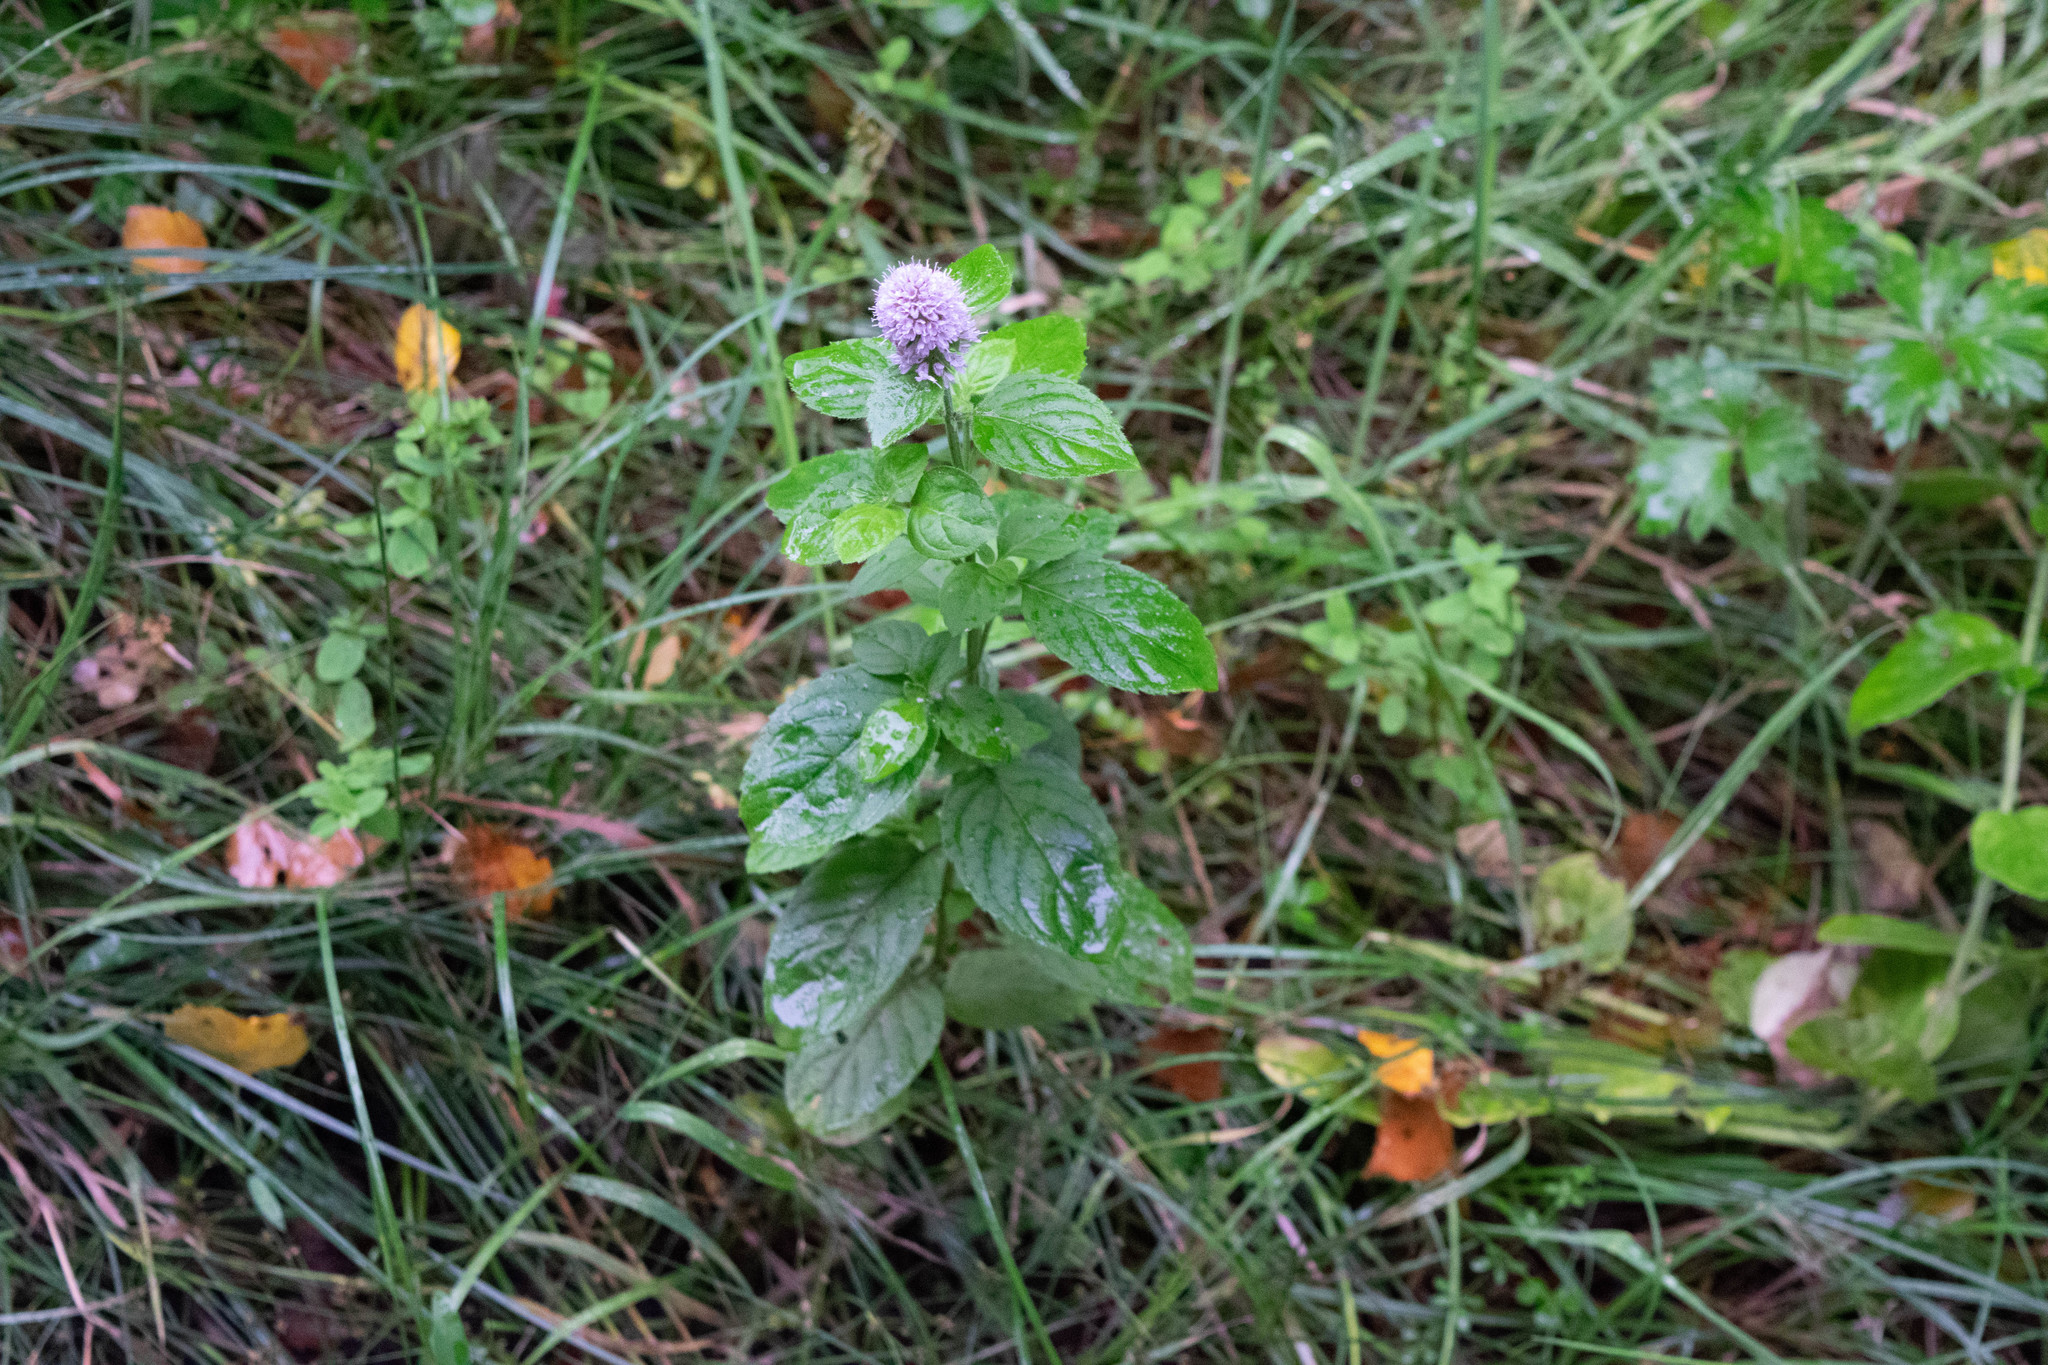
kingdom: Plantae
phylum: Tracheophyta
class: Magnoliopsida
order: Lamiales
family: Lamiaceae
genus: Mentha
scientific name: Mentha aquatica
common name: Water mint
